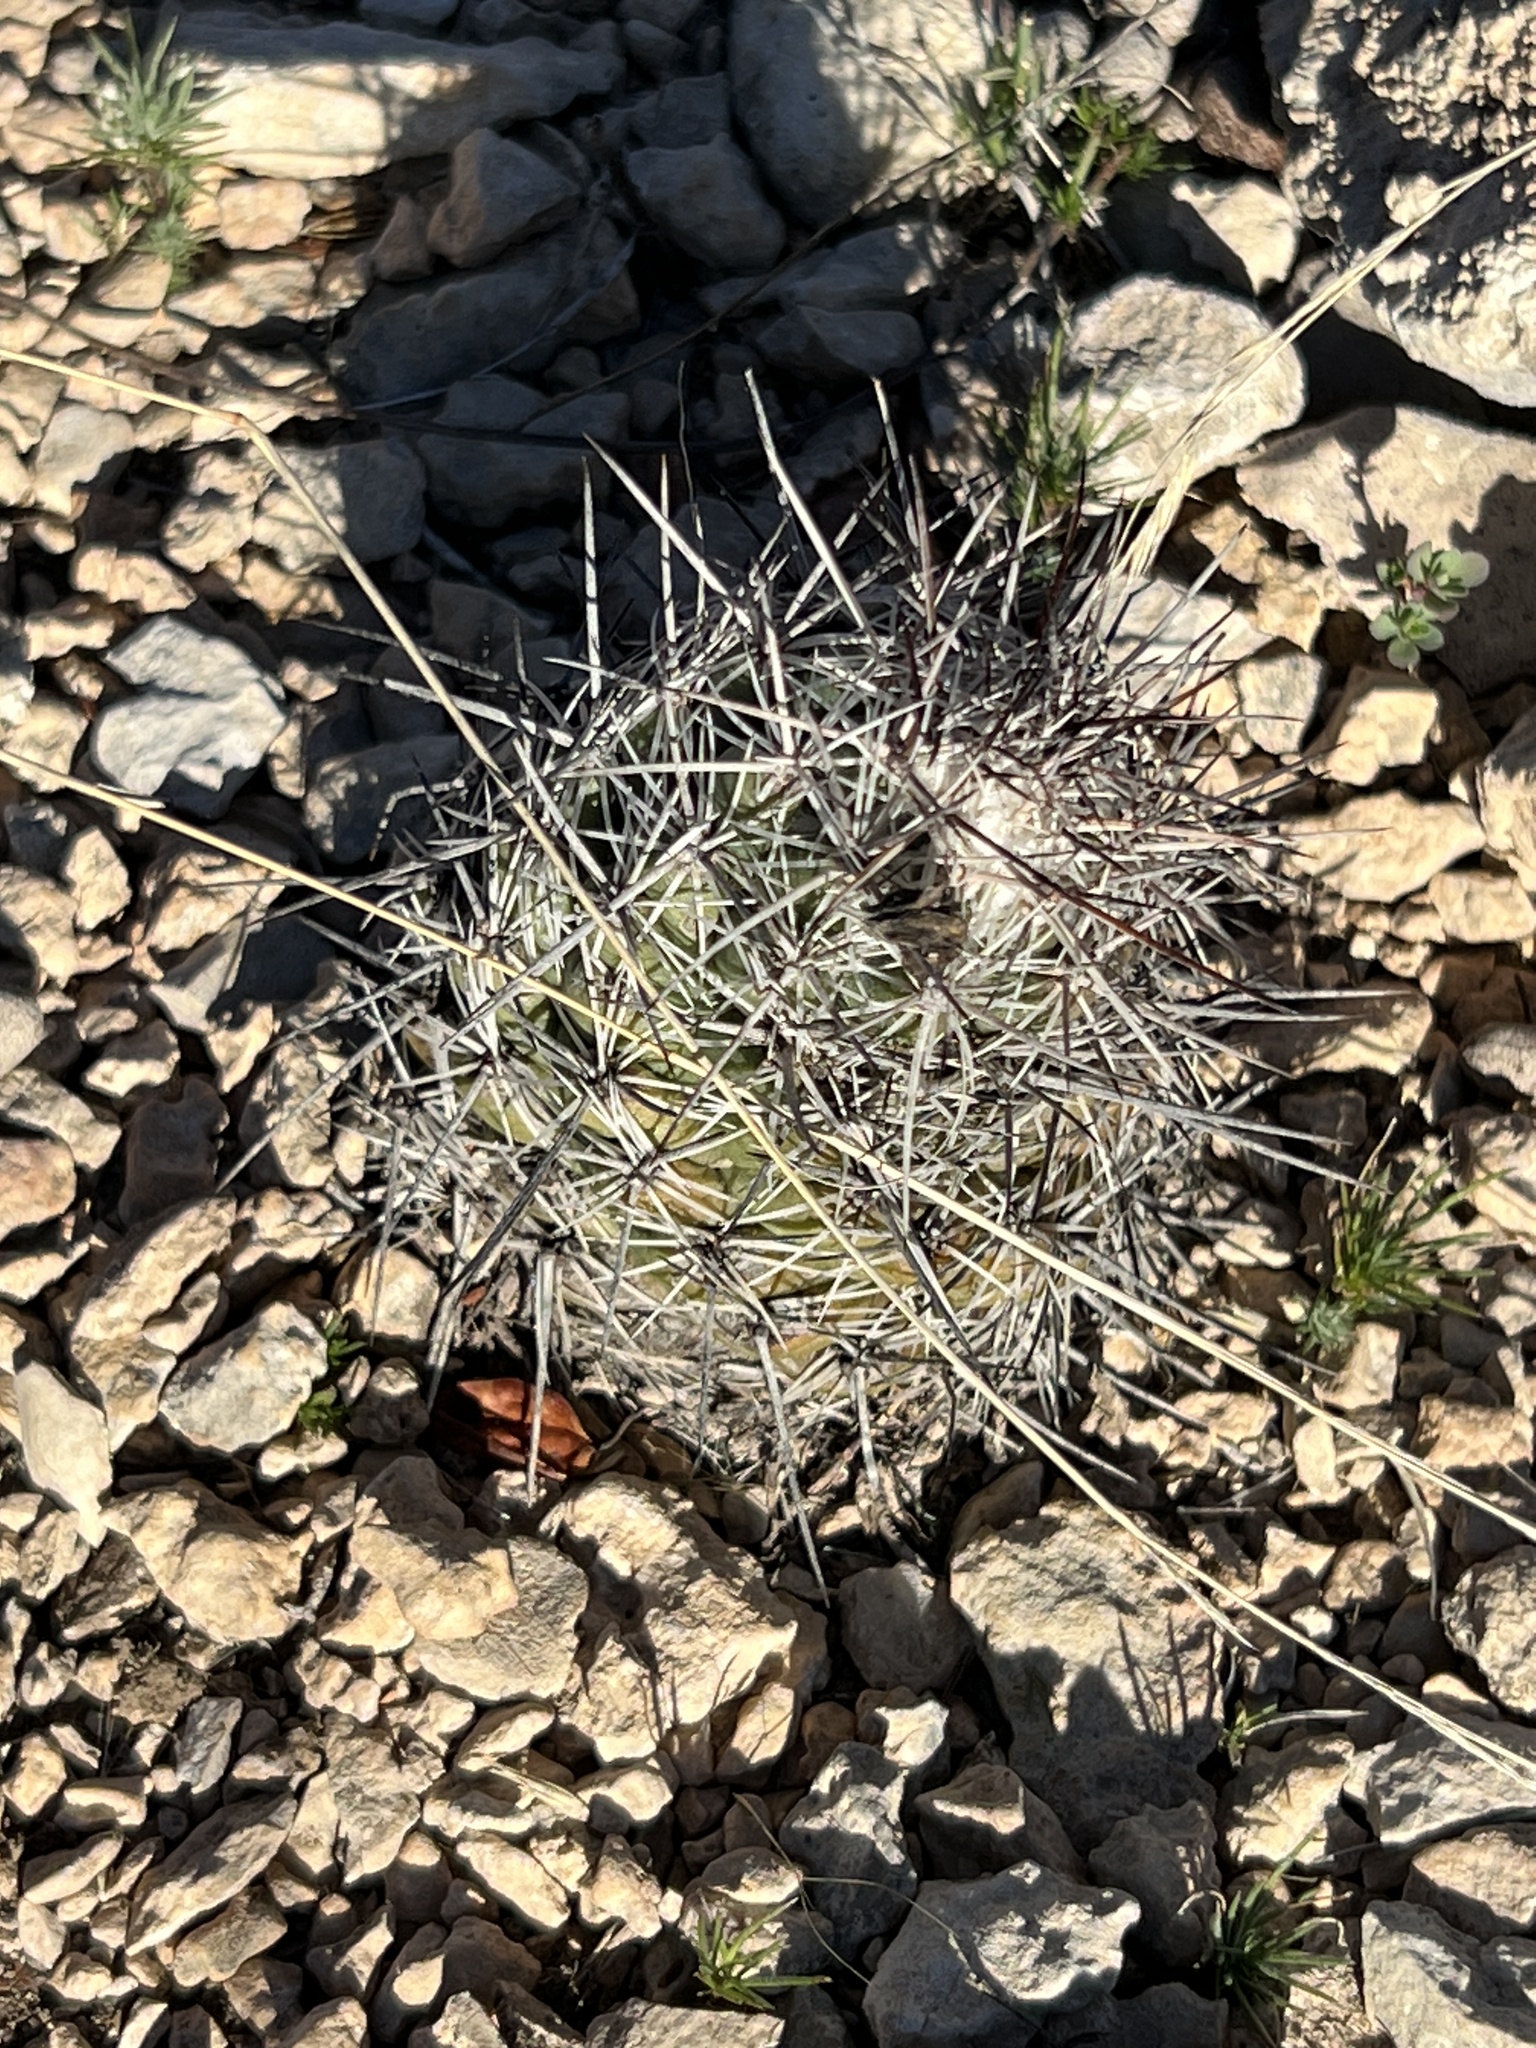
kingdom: Plantae
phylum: Tracheophyta
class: Magnoliopsida
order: Caryophyllales
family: Cactaceae
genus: Cochemiea
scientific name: Cochemiea conoidea
